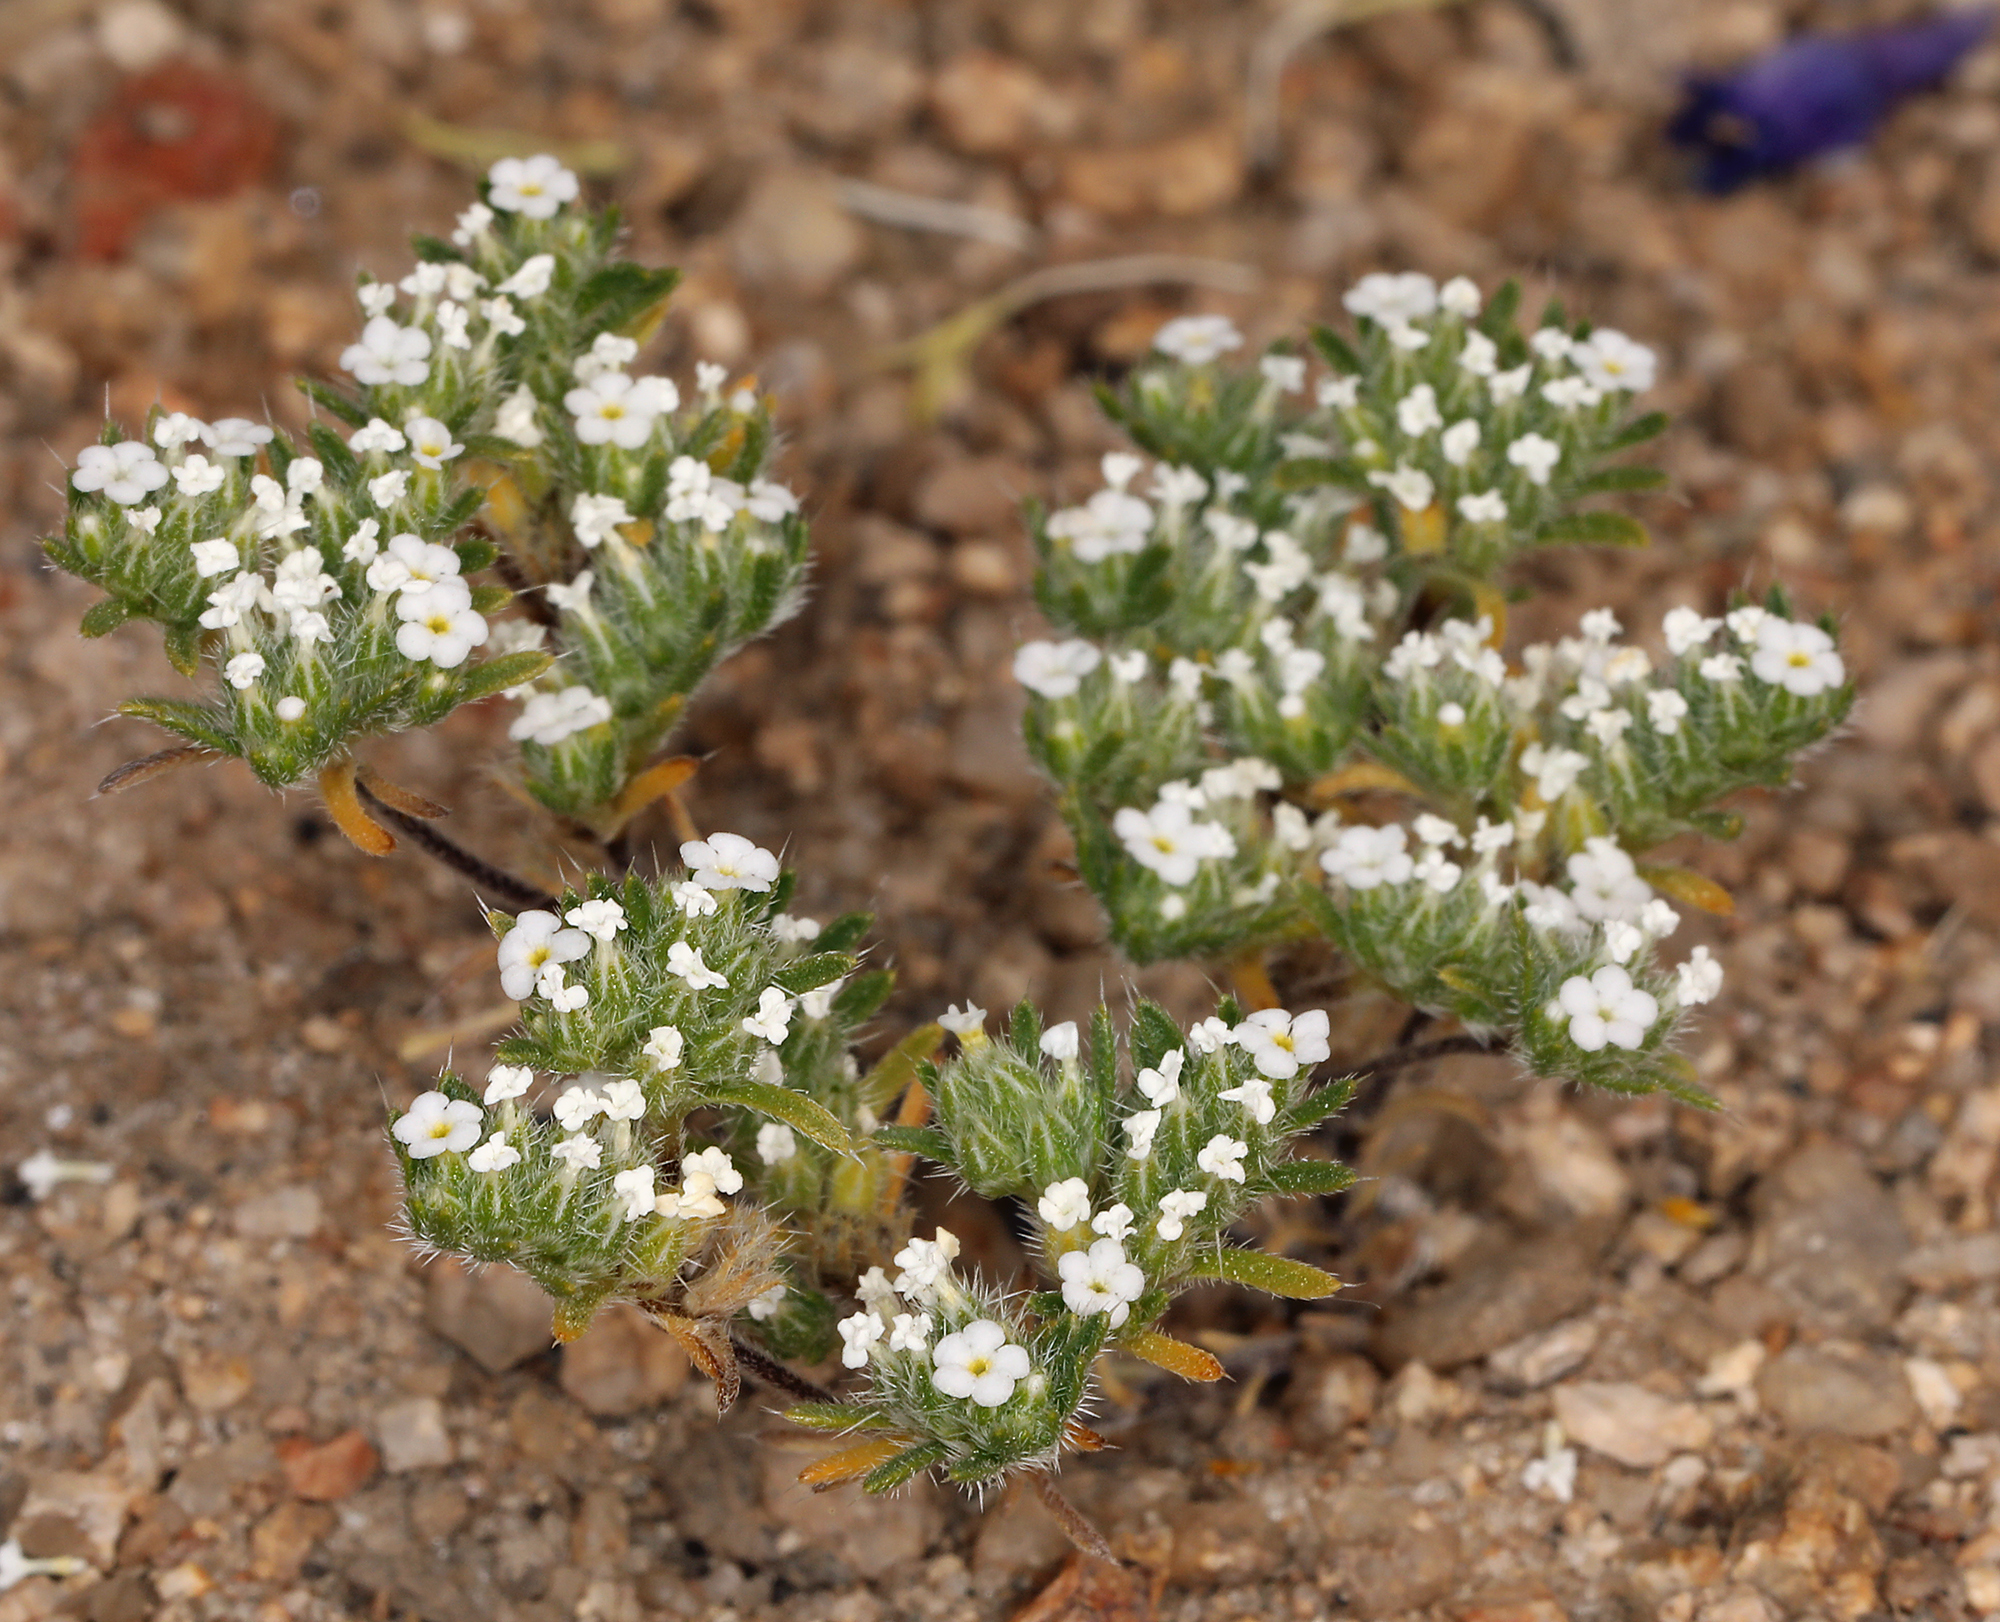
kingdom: Plantae
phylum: Tracheophyta
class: Magnoliopsida
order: Boraginales
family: Boraginaceae
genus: Greeneocharis
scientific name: Greeneocharis circumscissa
